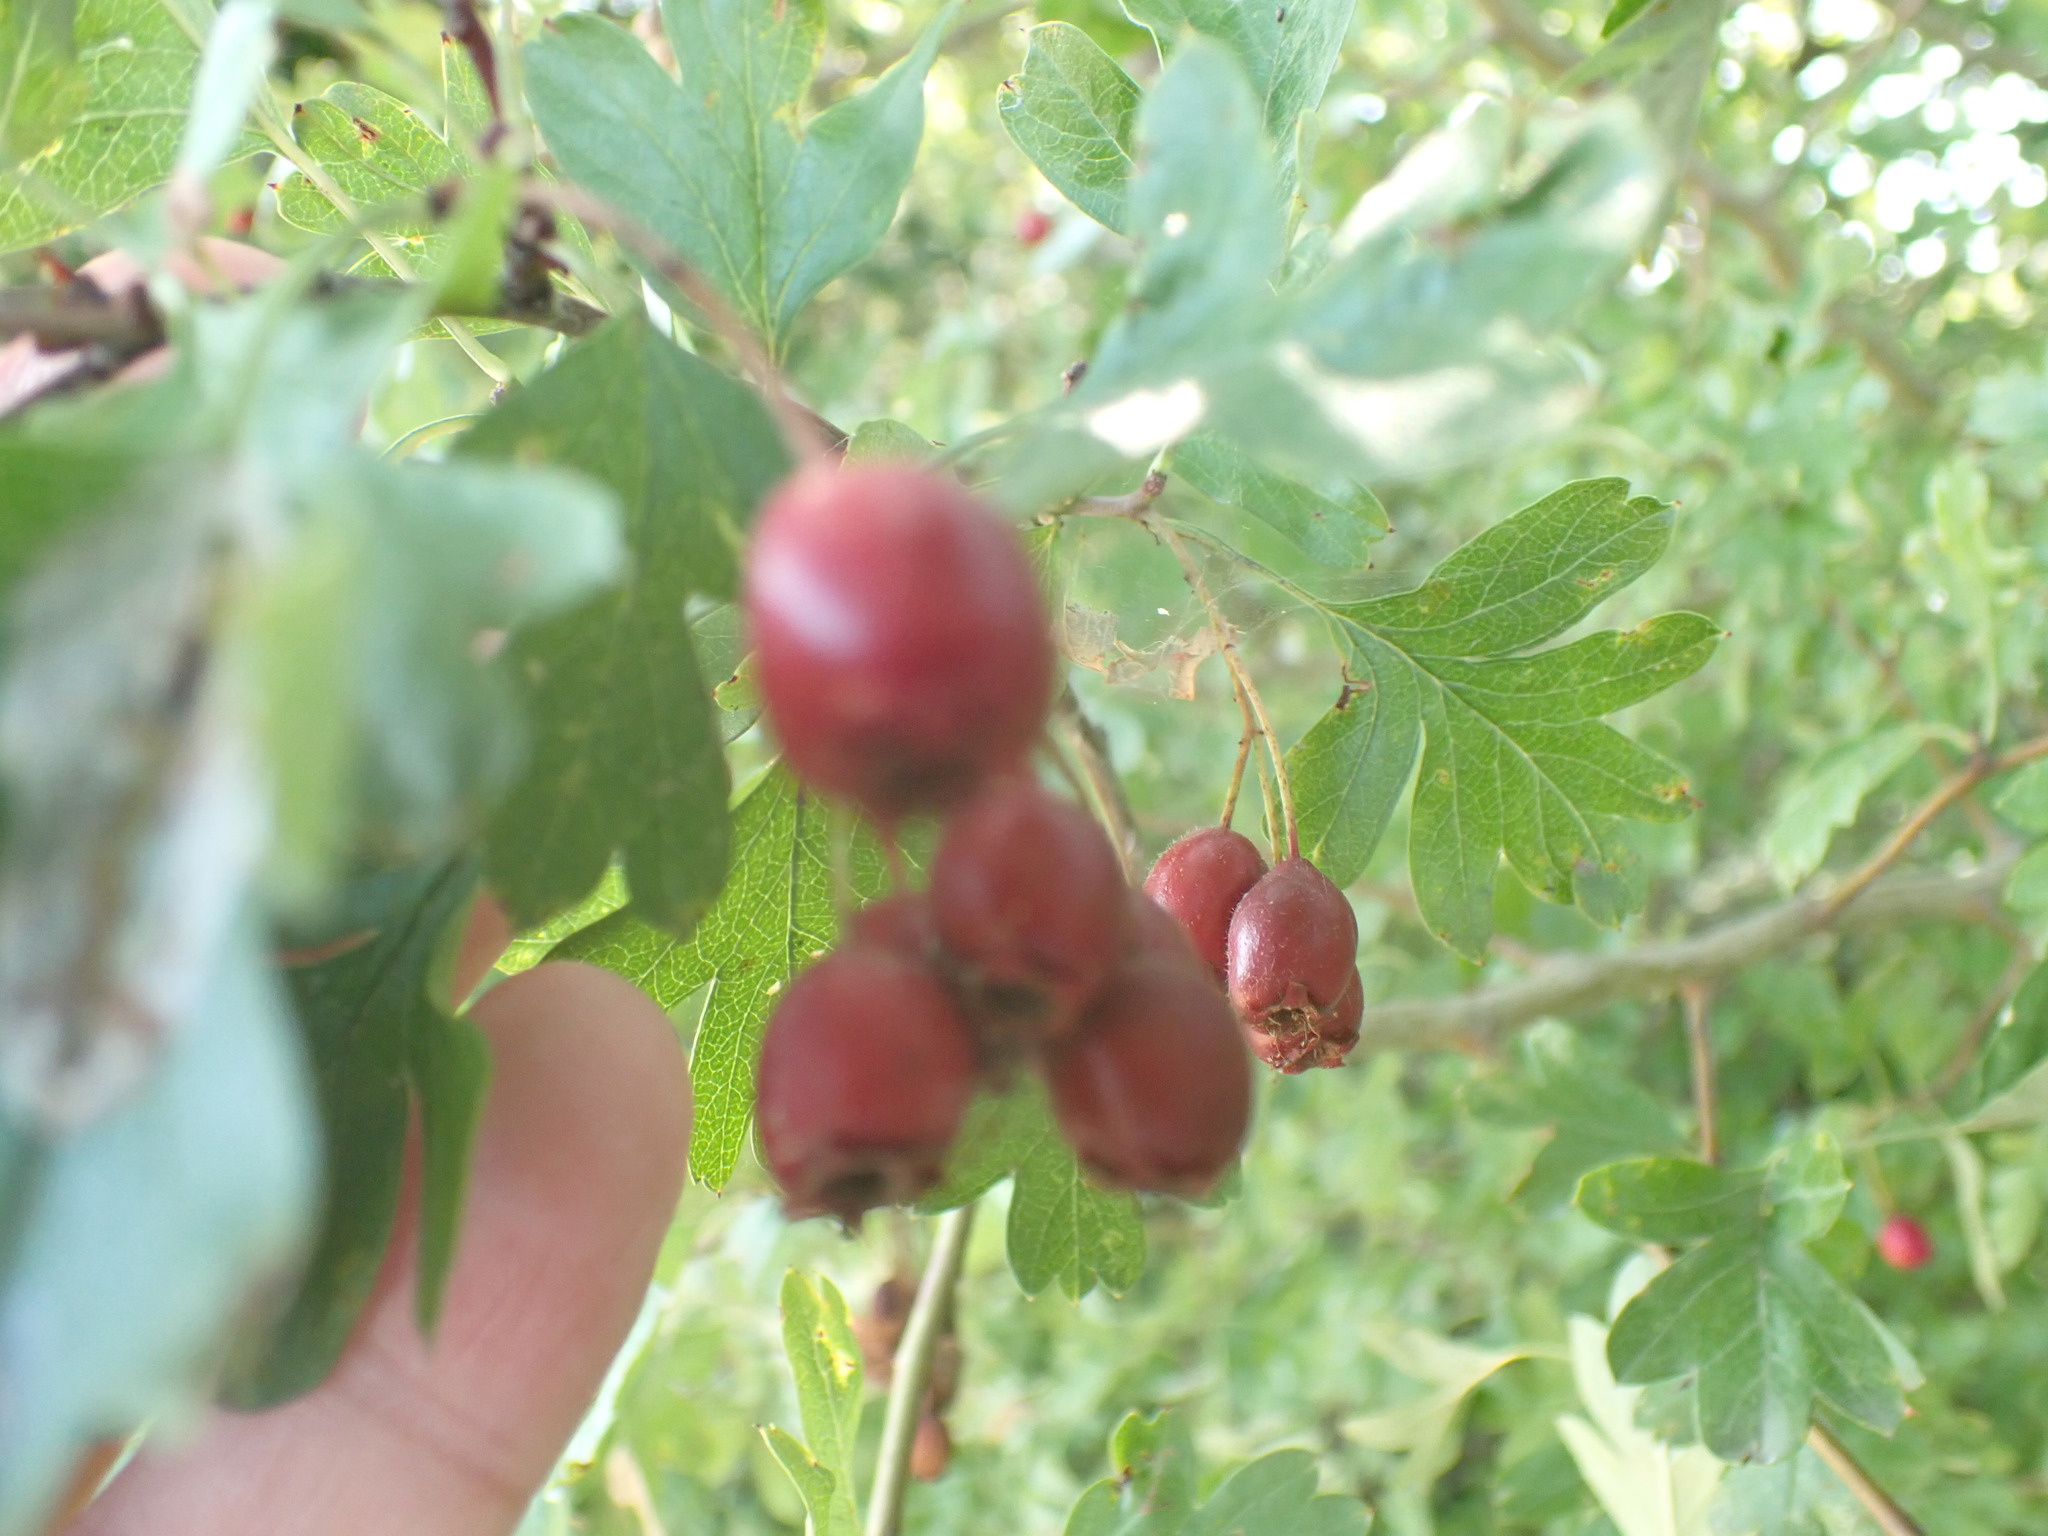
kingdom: Plantae
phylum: Tracheophyta
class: Magnoliopsida
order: Rosales
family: Rosaceae
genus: Crataegus
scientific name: Crataegus monogyna
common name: Hawthorn
